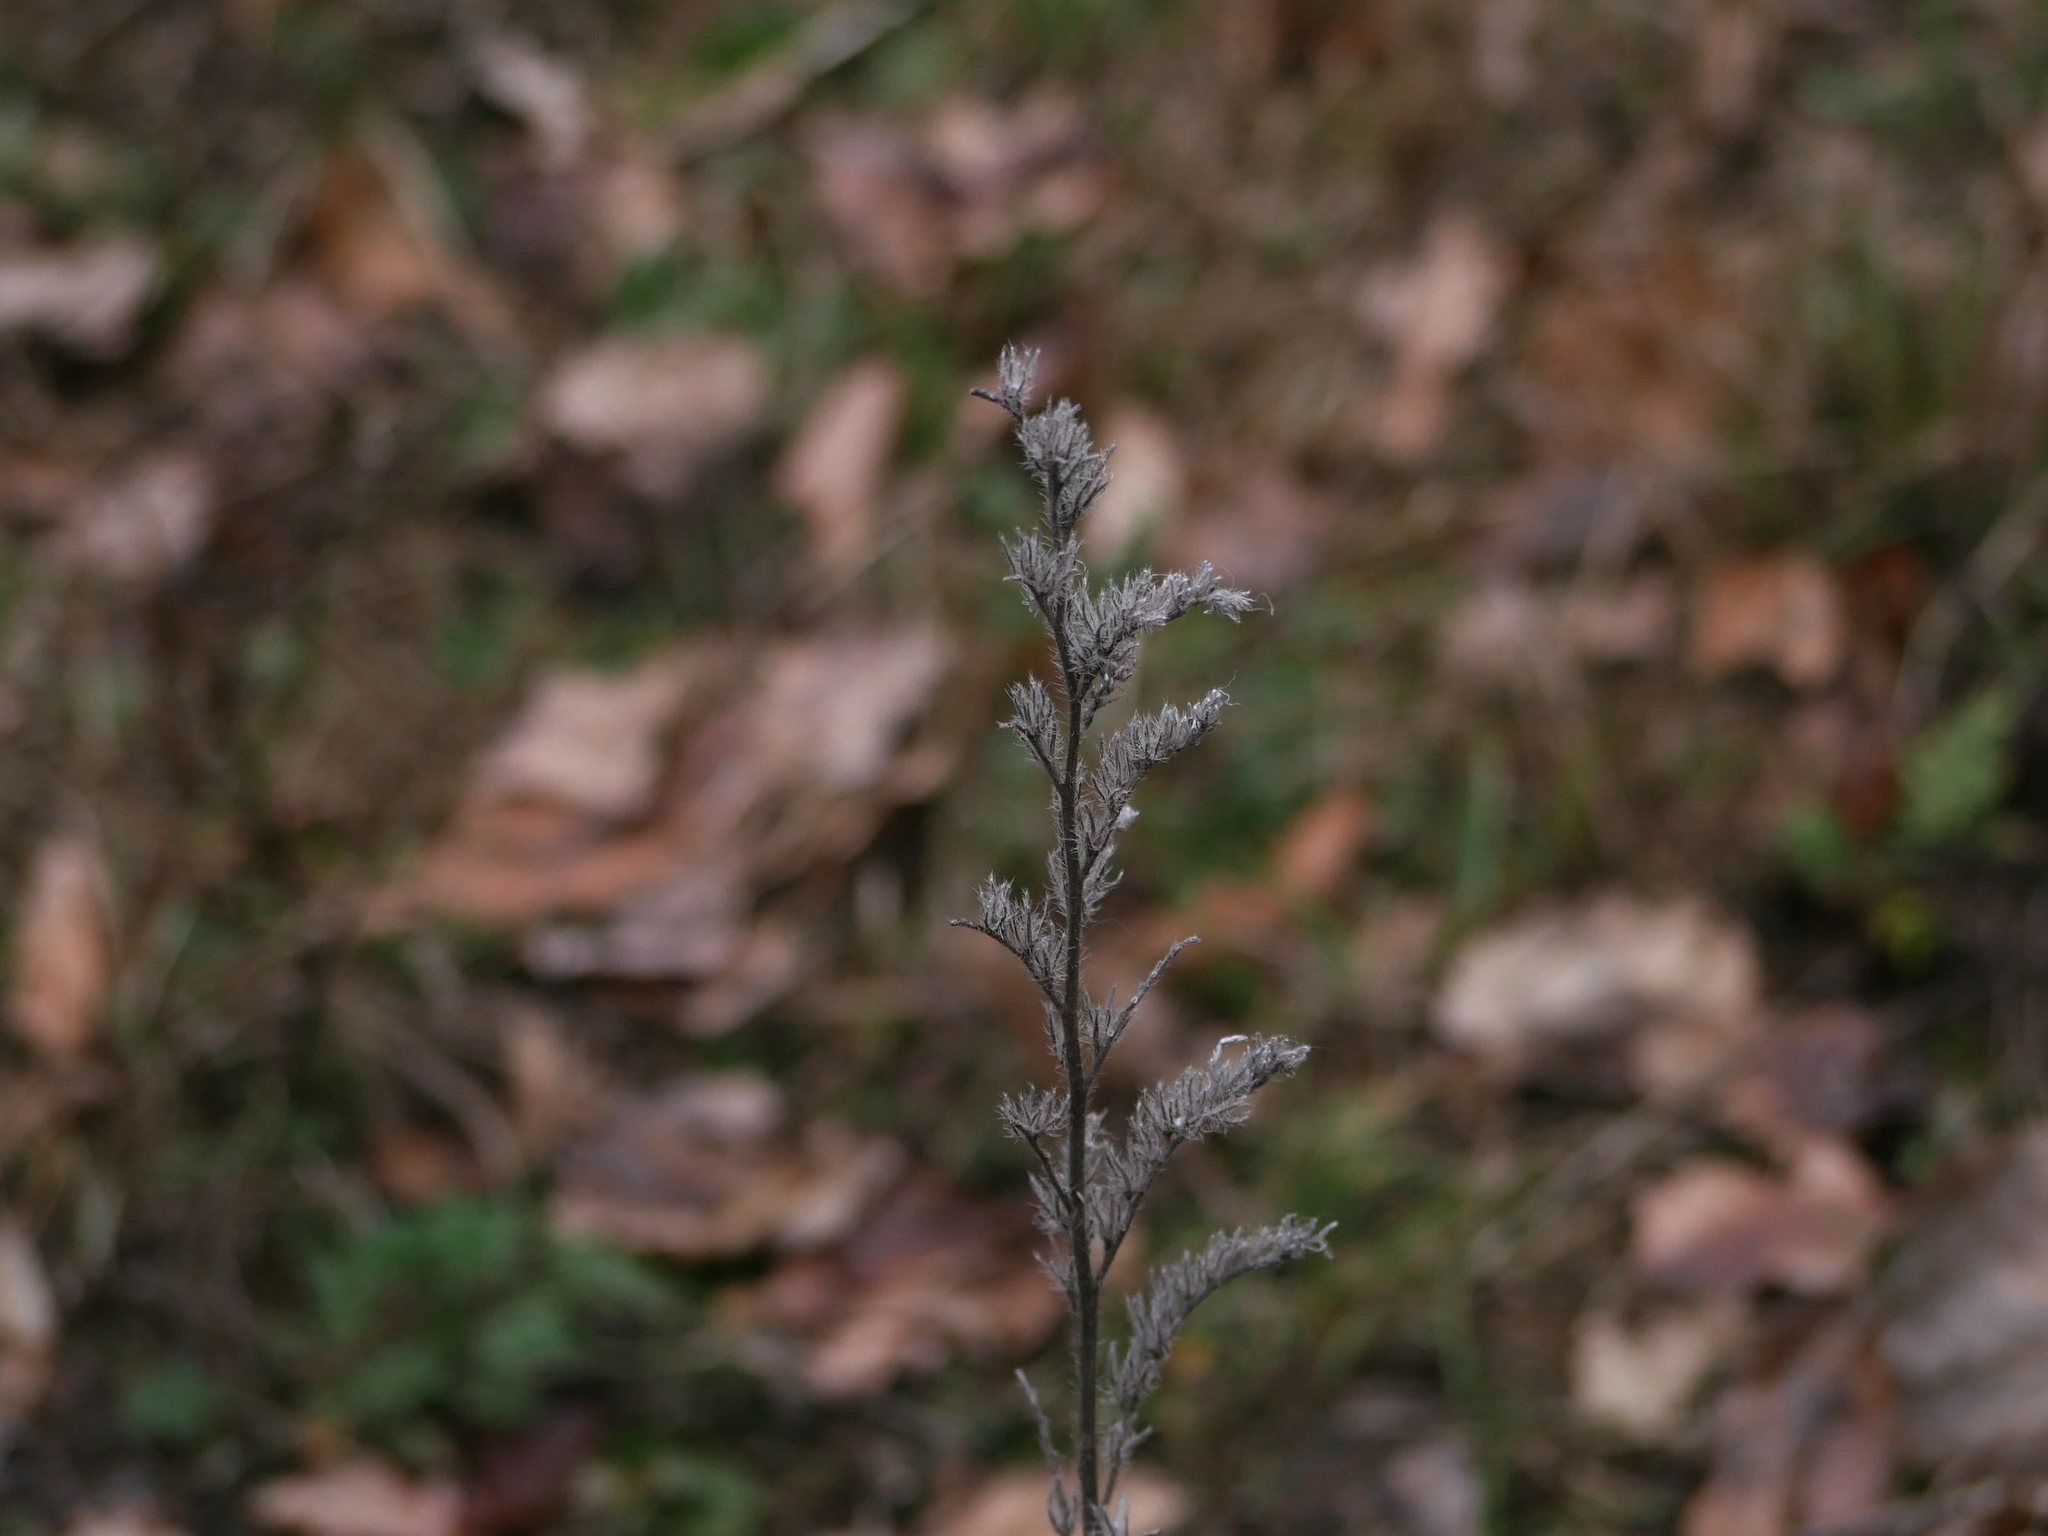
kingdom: Plantae
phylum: Tracheophyta
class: Magnoliopsida
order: Boraginales
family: Boraginaceae
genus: Echium
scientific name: Echium vulgare
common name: Common viper's bugloss
